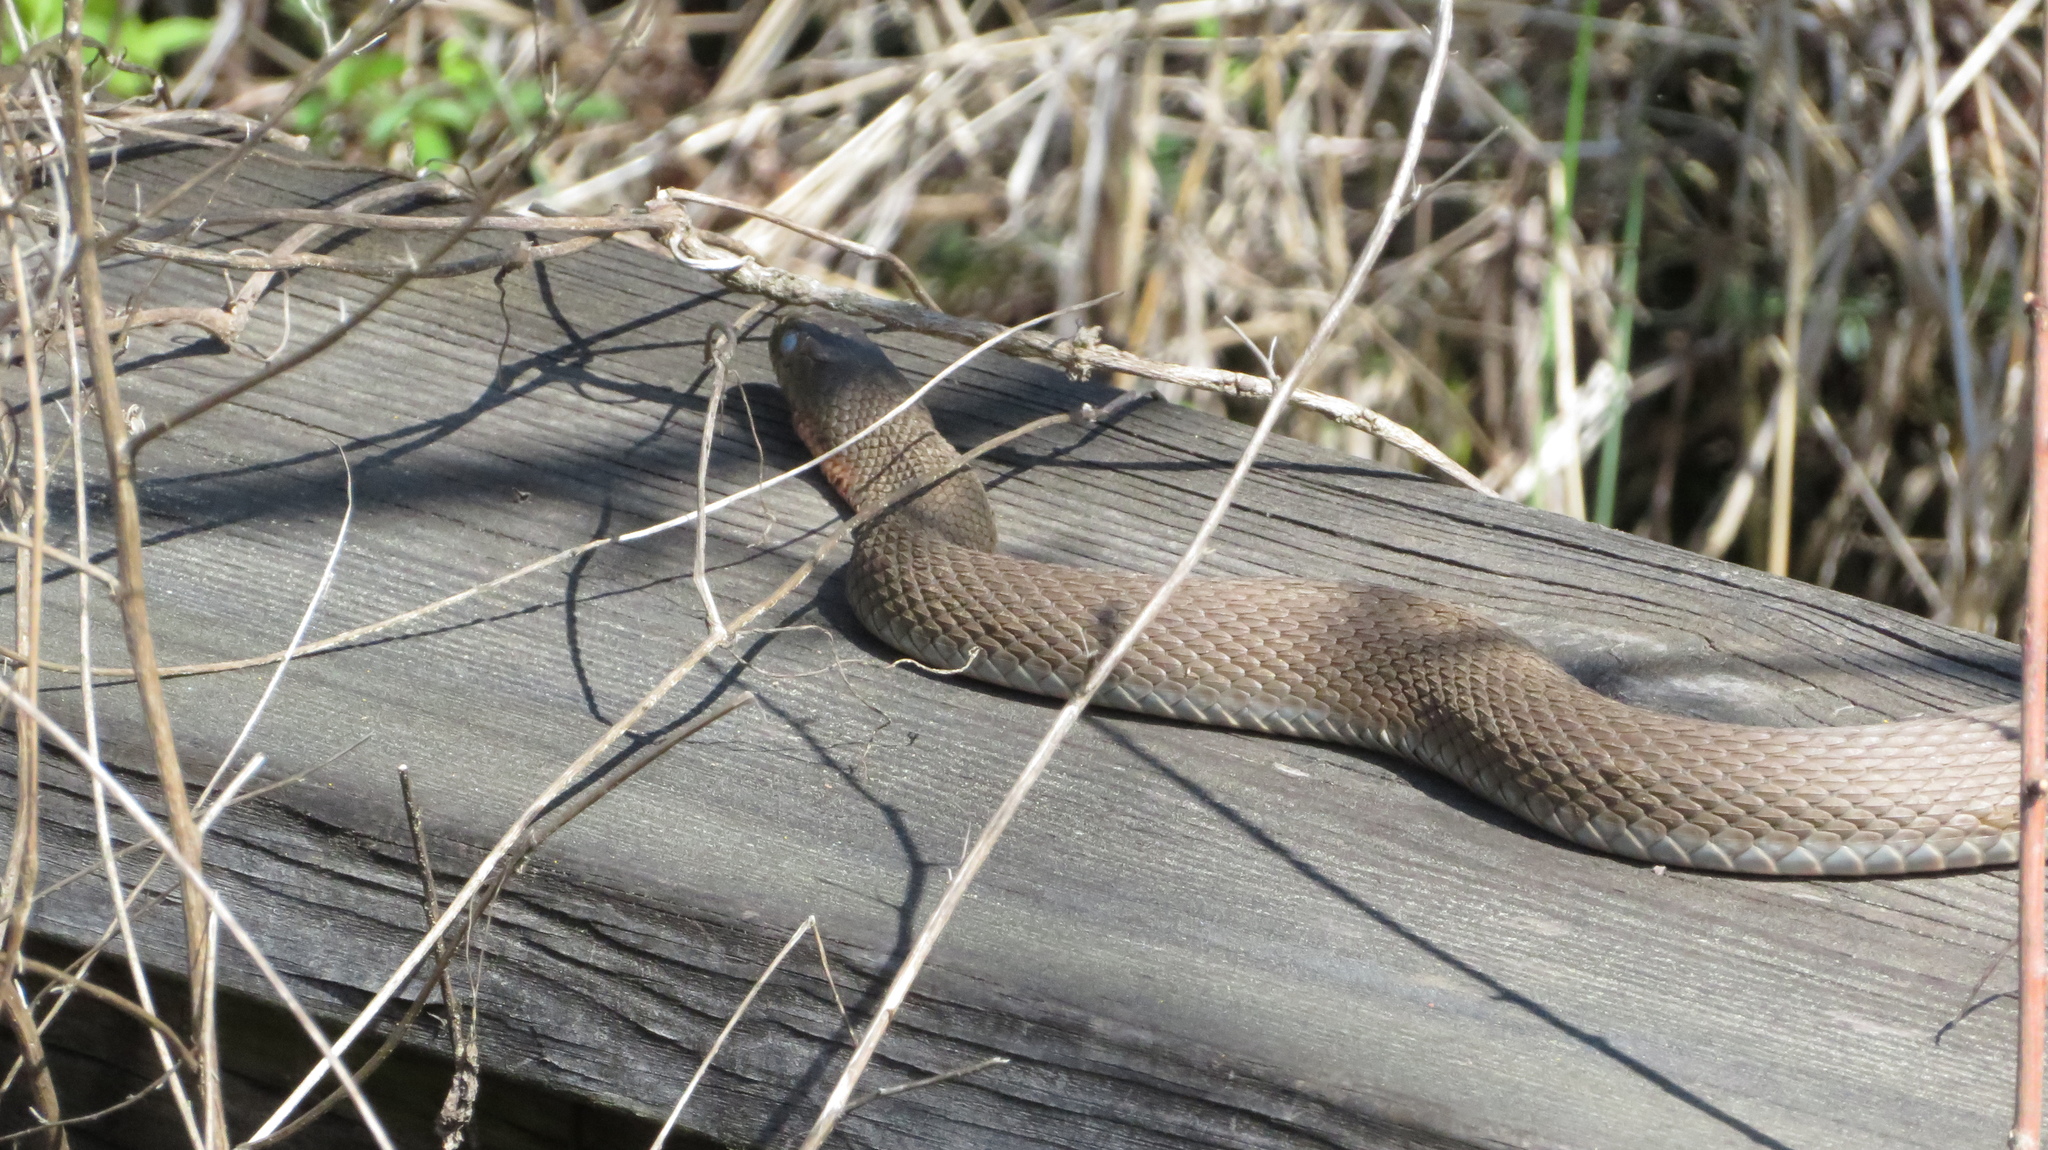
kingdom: Animalia
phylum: Chordata
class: Squamata
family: Colubridae
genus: Nerodia
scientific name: Nerodia erythrogaster
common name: Plainbelly water snake
